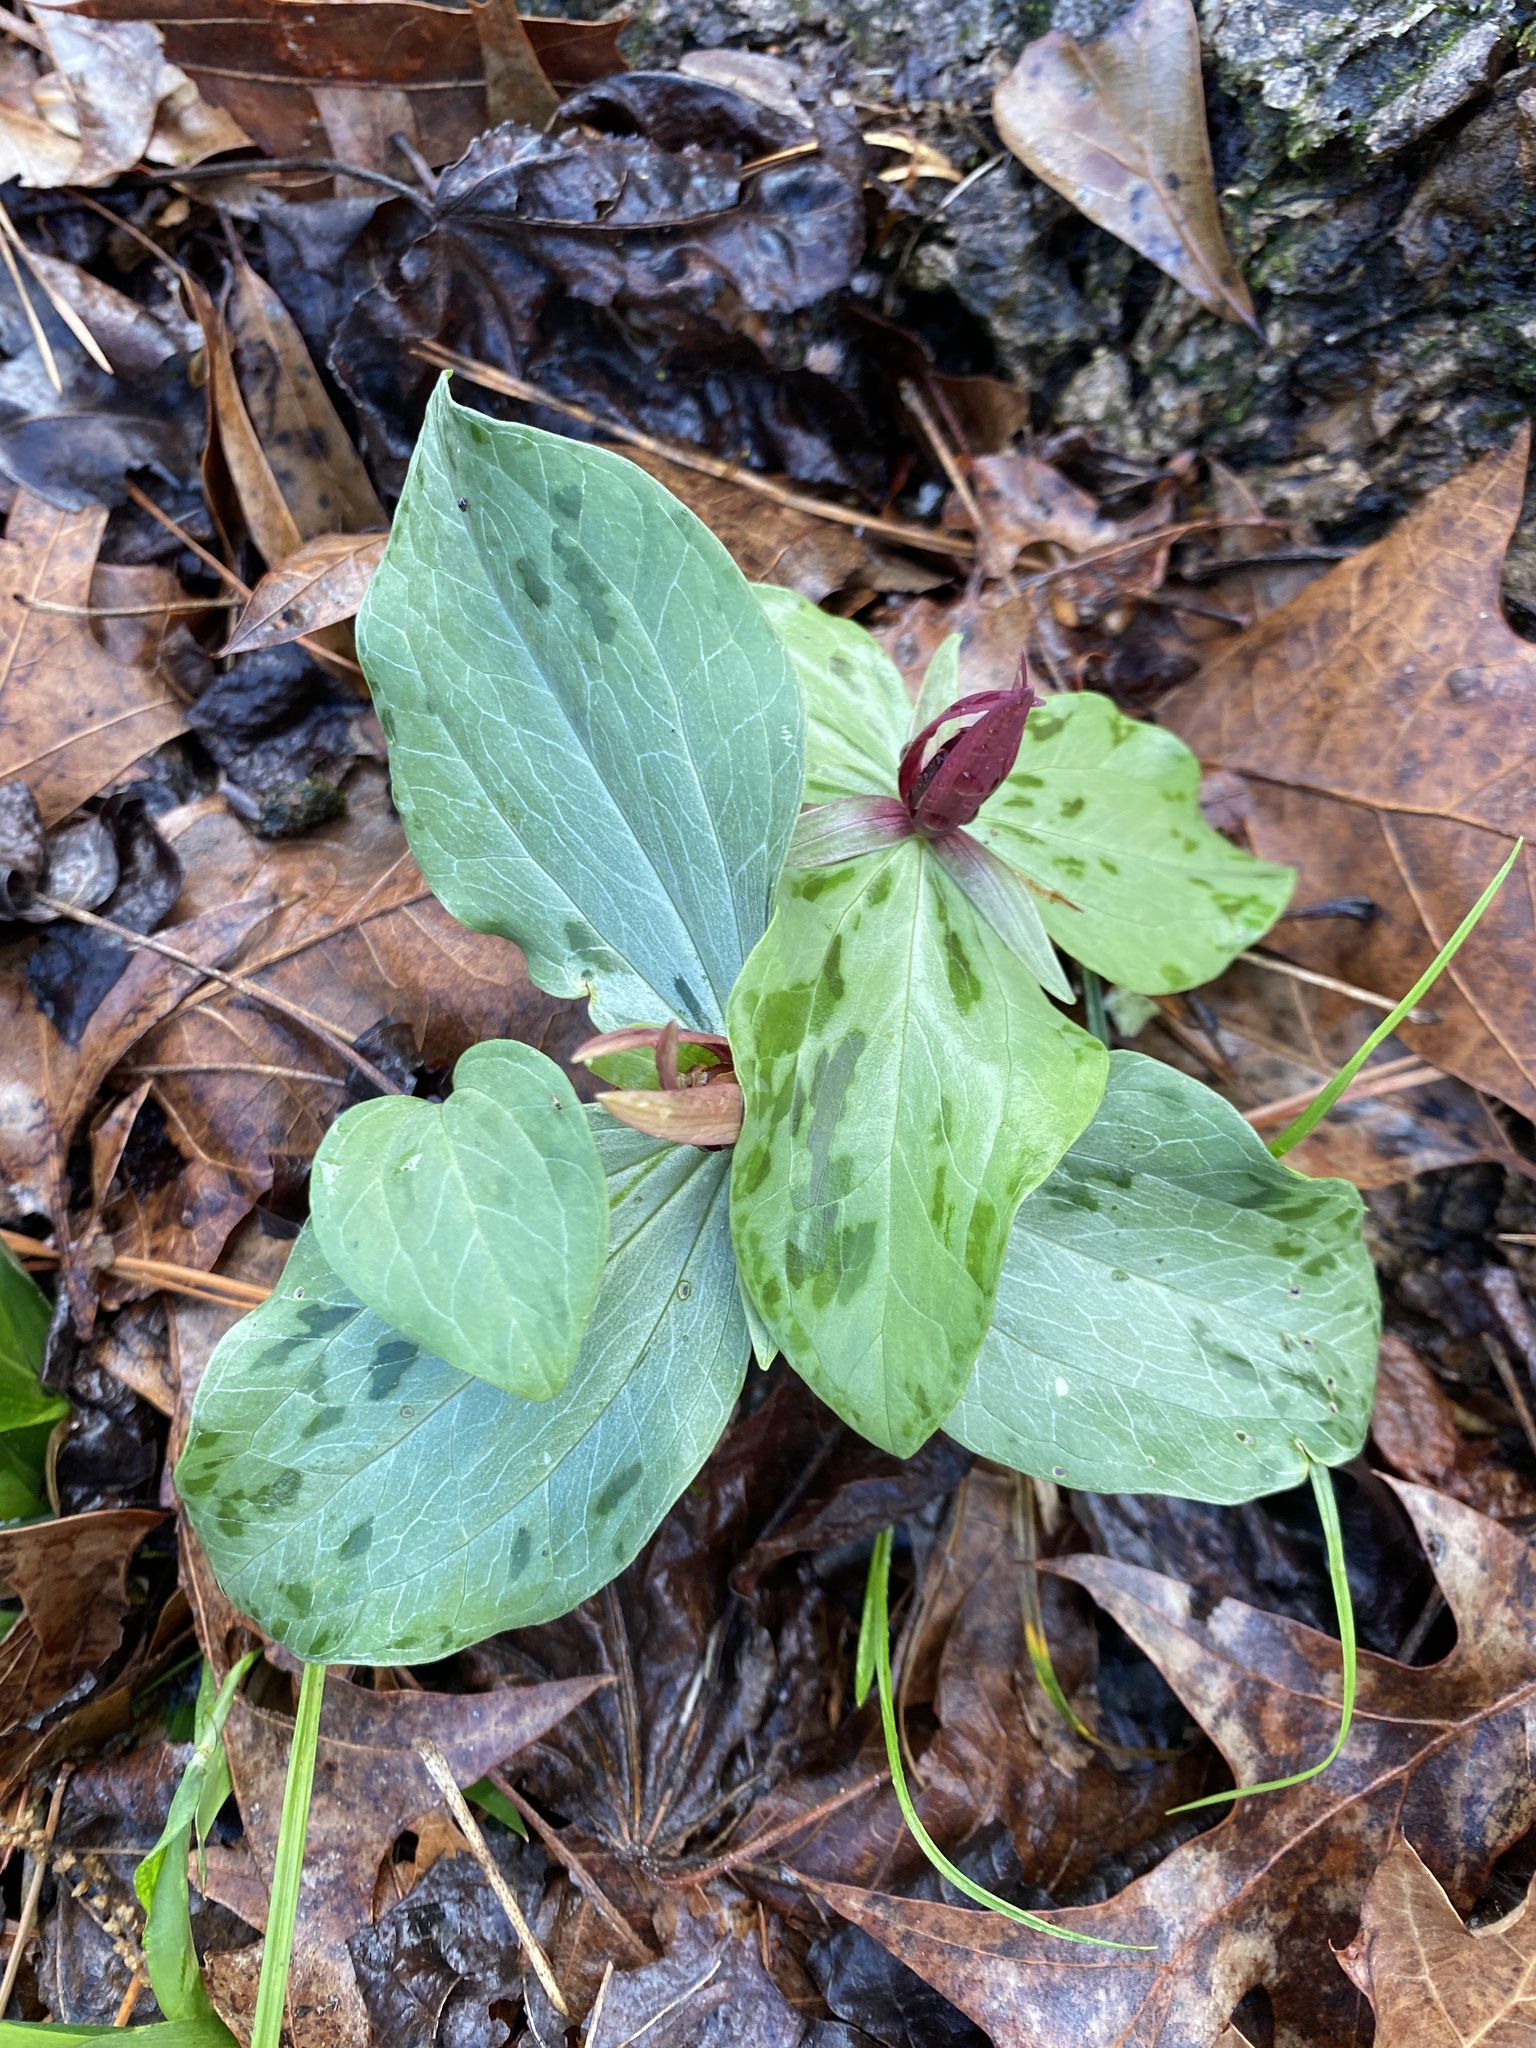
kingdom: Plantae
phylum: Tracheophyta
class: Liliopsida
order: Liliales
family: Melanthiaceae
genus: Trillium
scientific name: Trillium foetidissimum
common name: Mississippi river trillium
